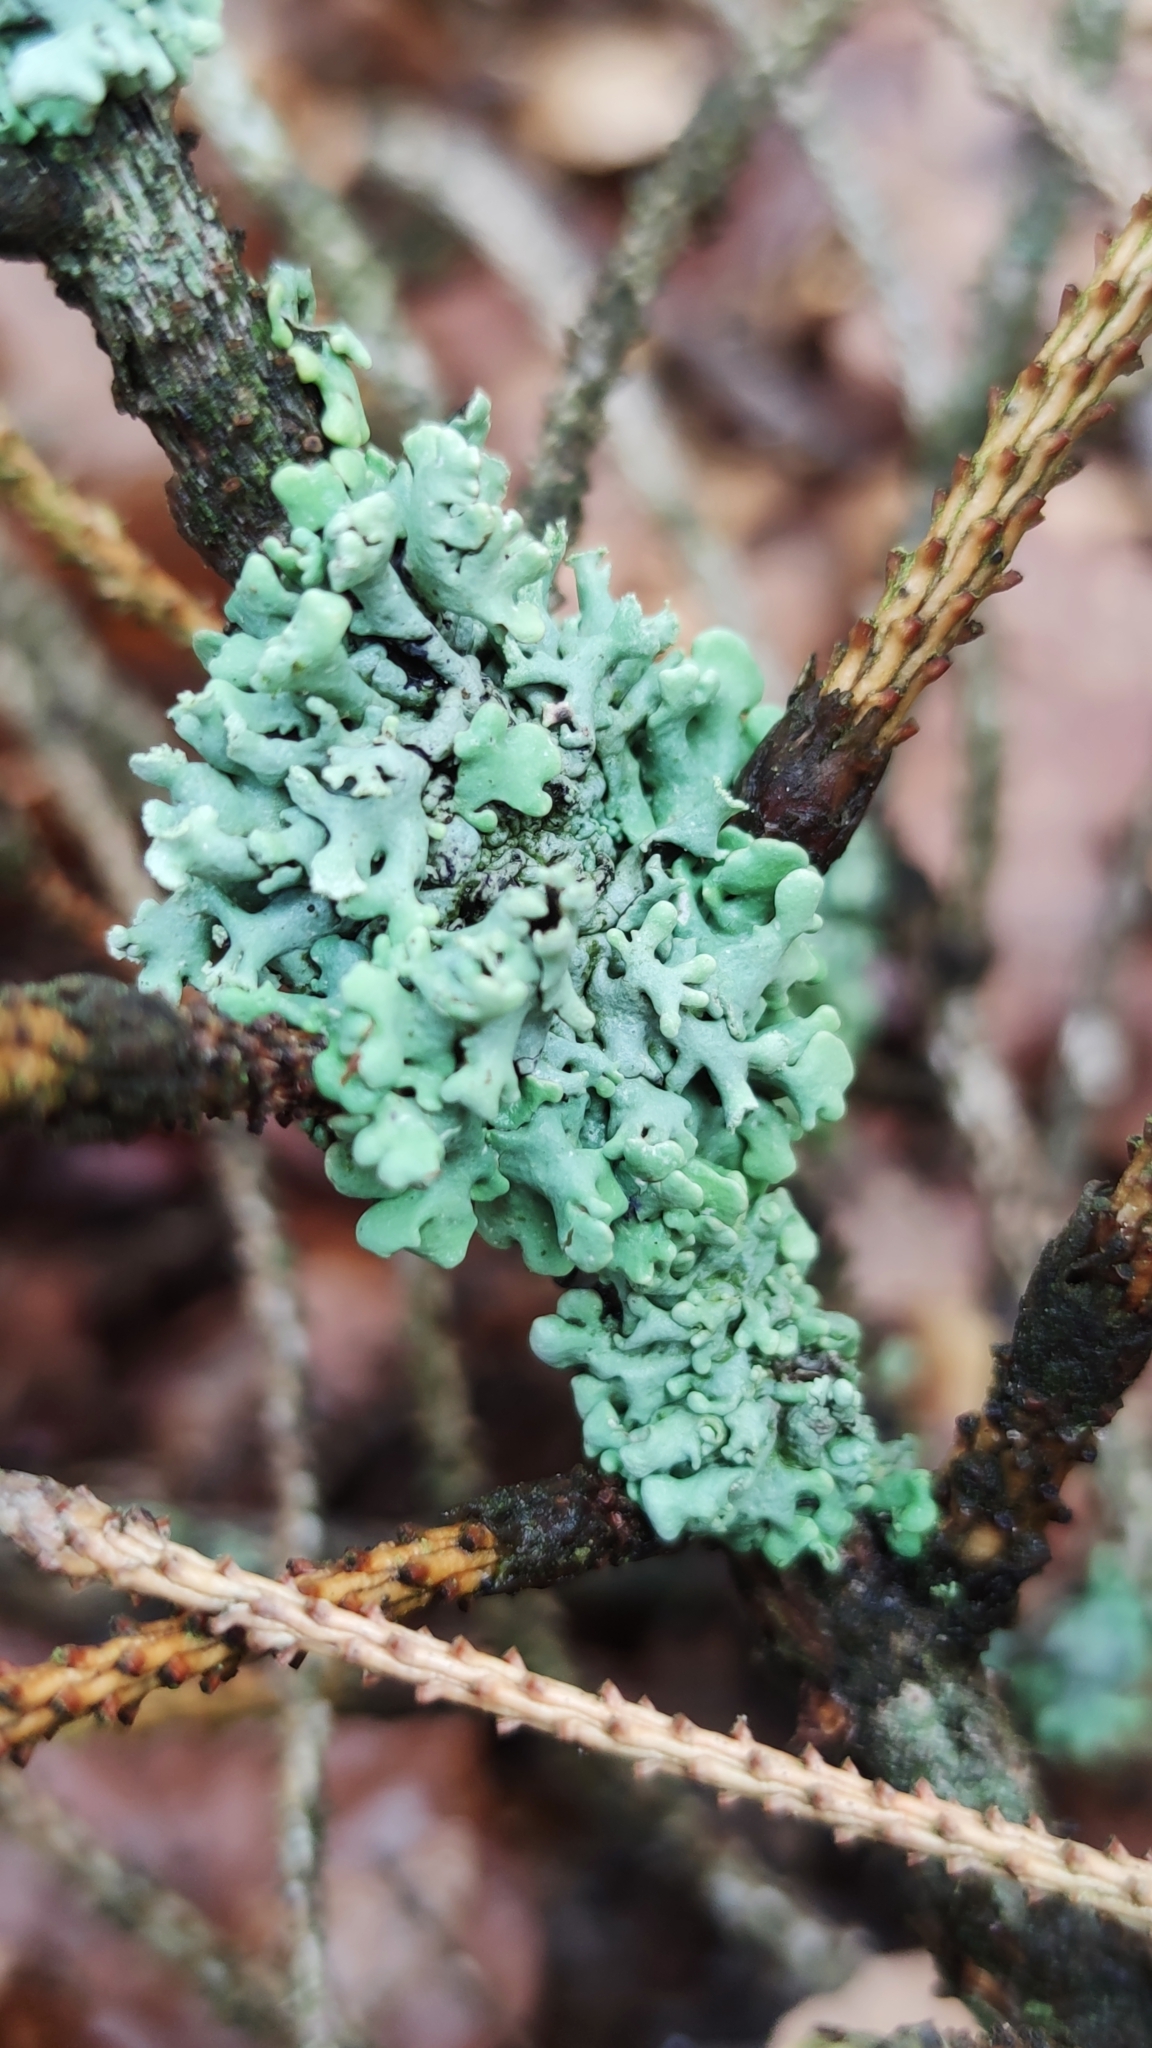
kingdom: Fungi
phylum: Ascomycota
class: Lecanoromycetes
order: Lecanorales
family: Parmeliaceae
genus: Hypogymnia
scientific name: Hypogymnia physodes
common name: Dark crottle
